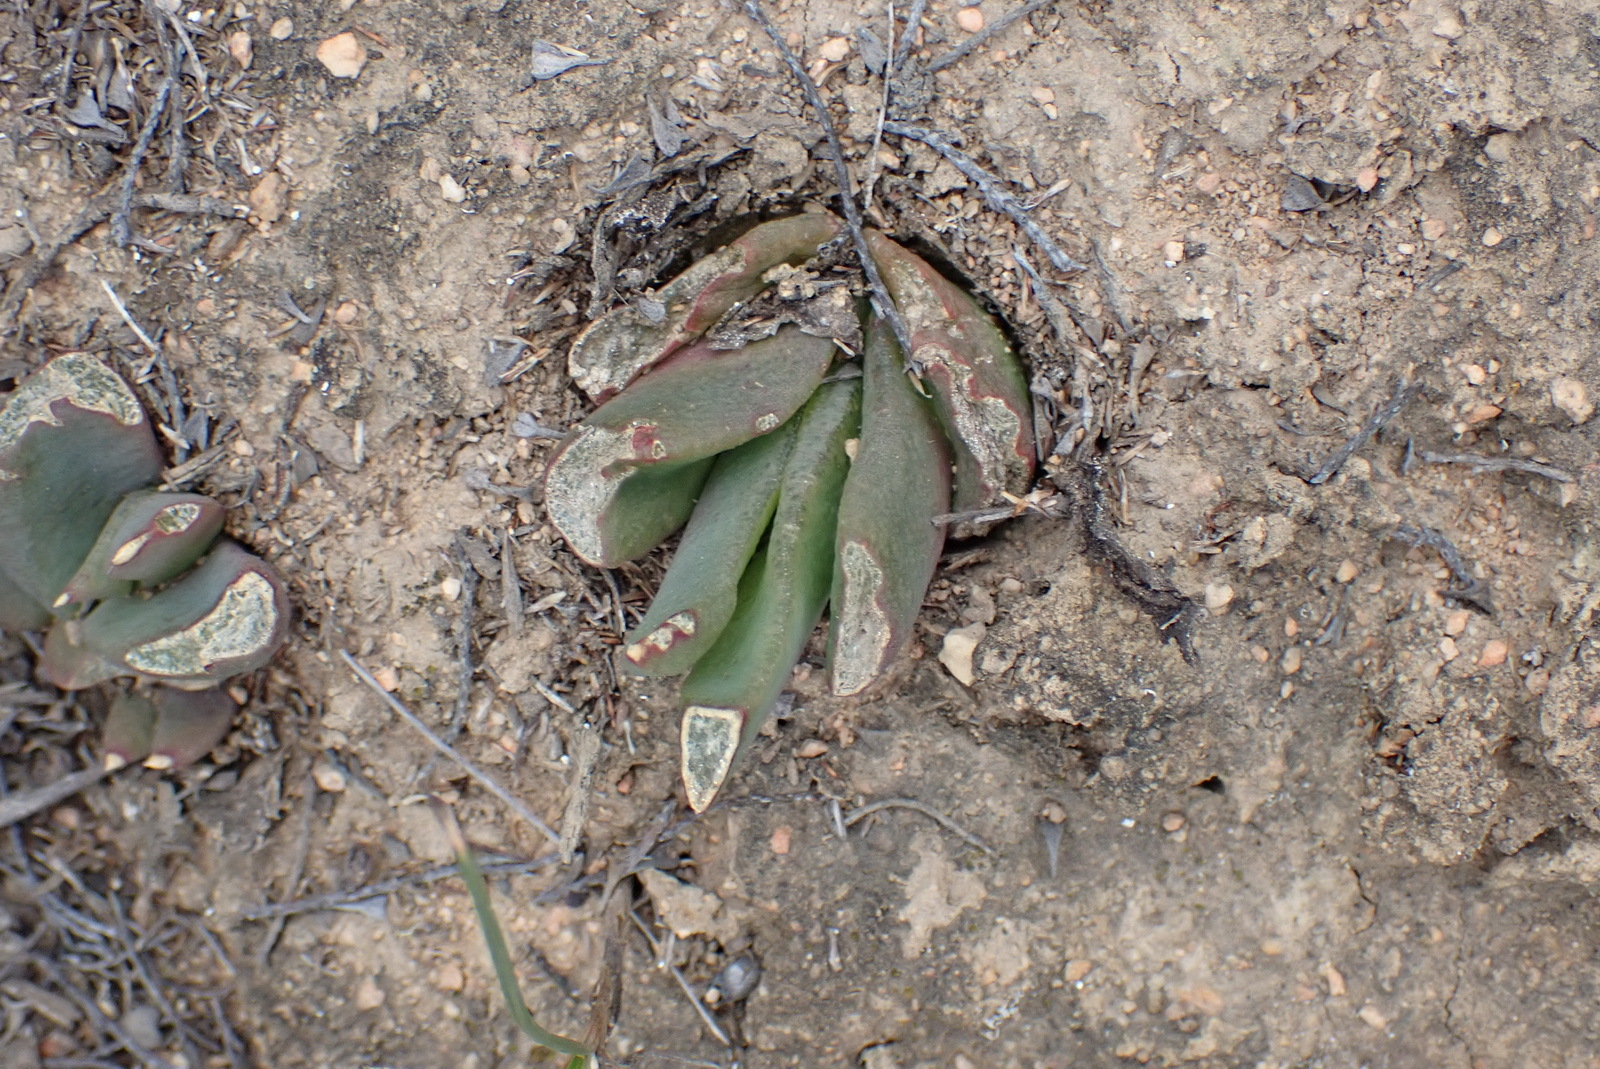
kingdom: Plantae
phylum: Tracheophyta
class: Magnoliopsida
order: Caryophyllales
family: Aizoaceae
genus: Glottiphyllum
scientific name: Glottiphyllum depressum
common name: Fig-marigold
